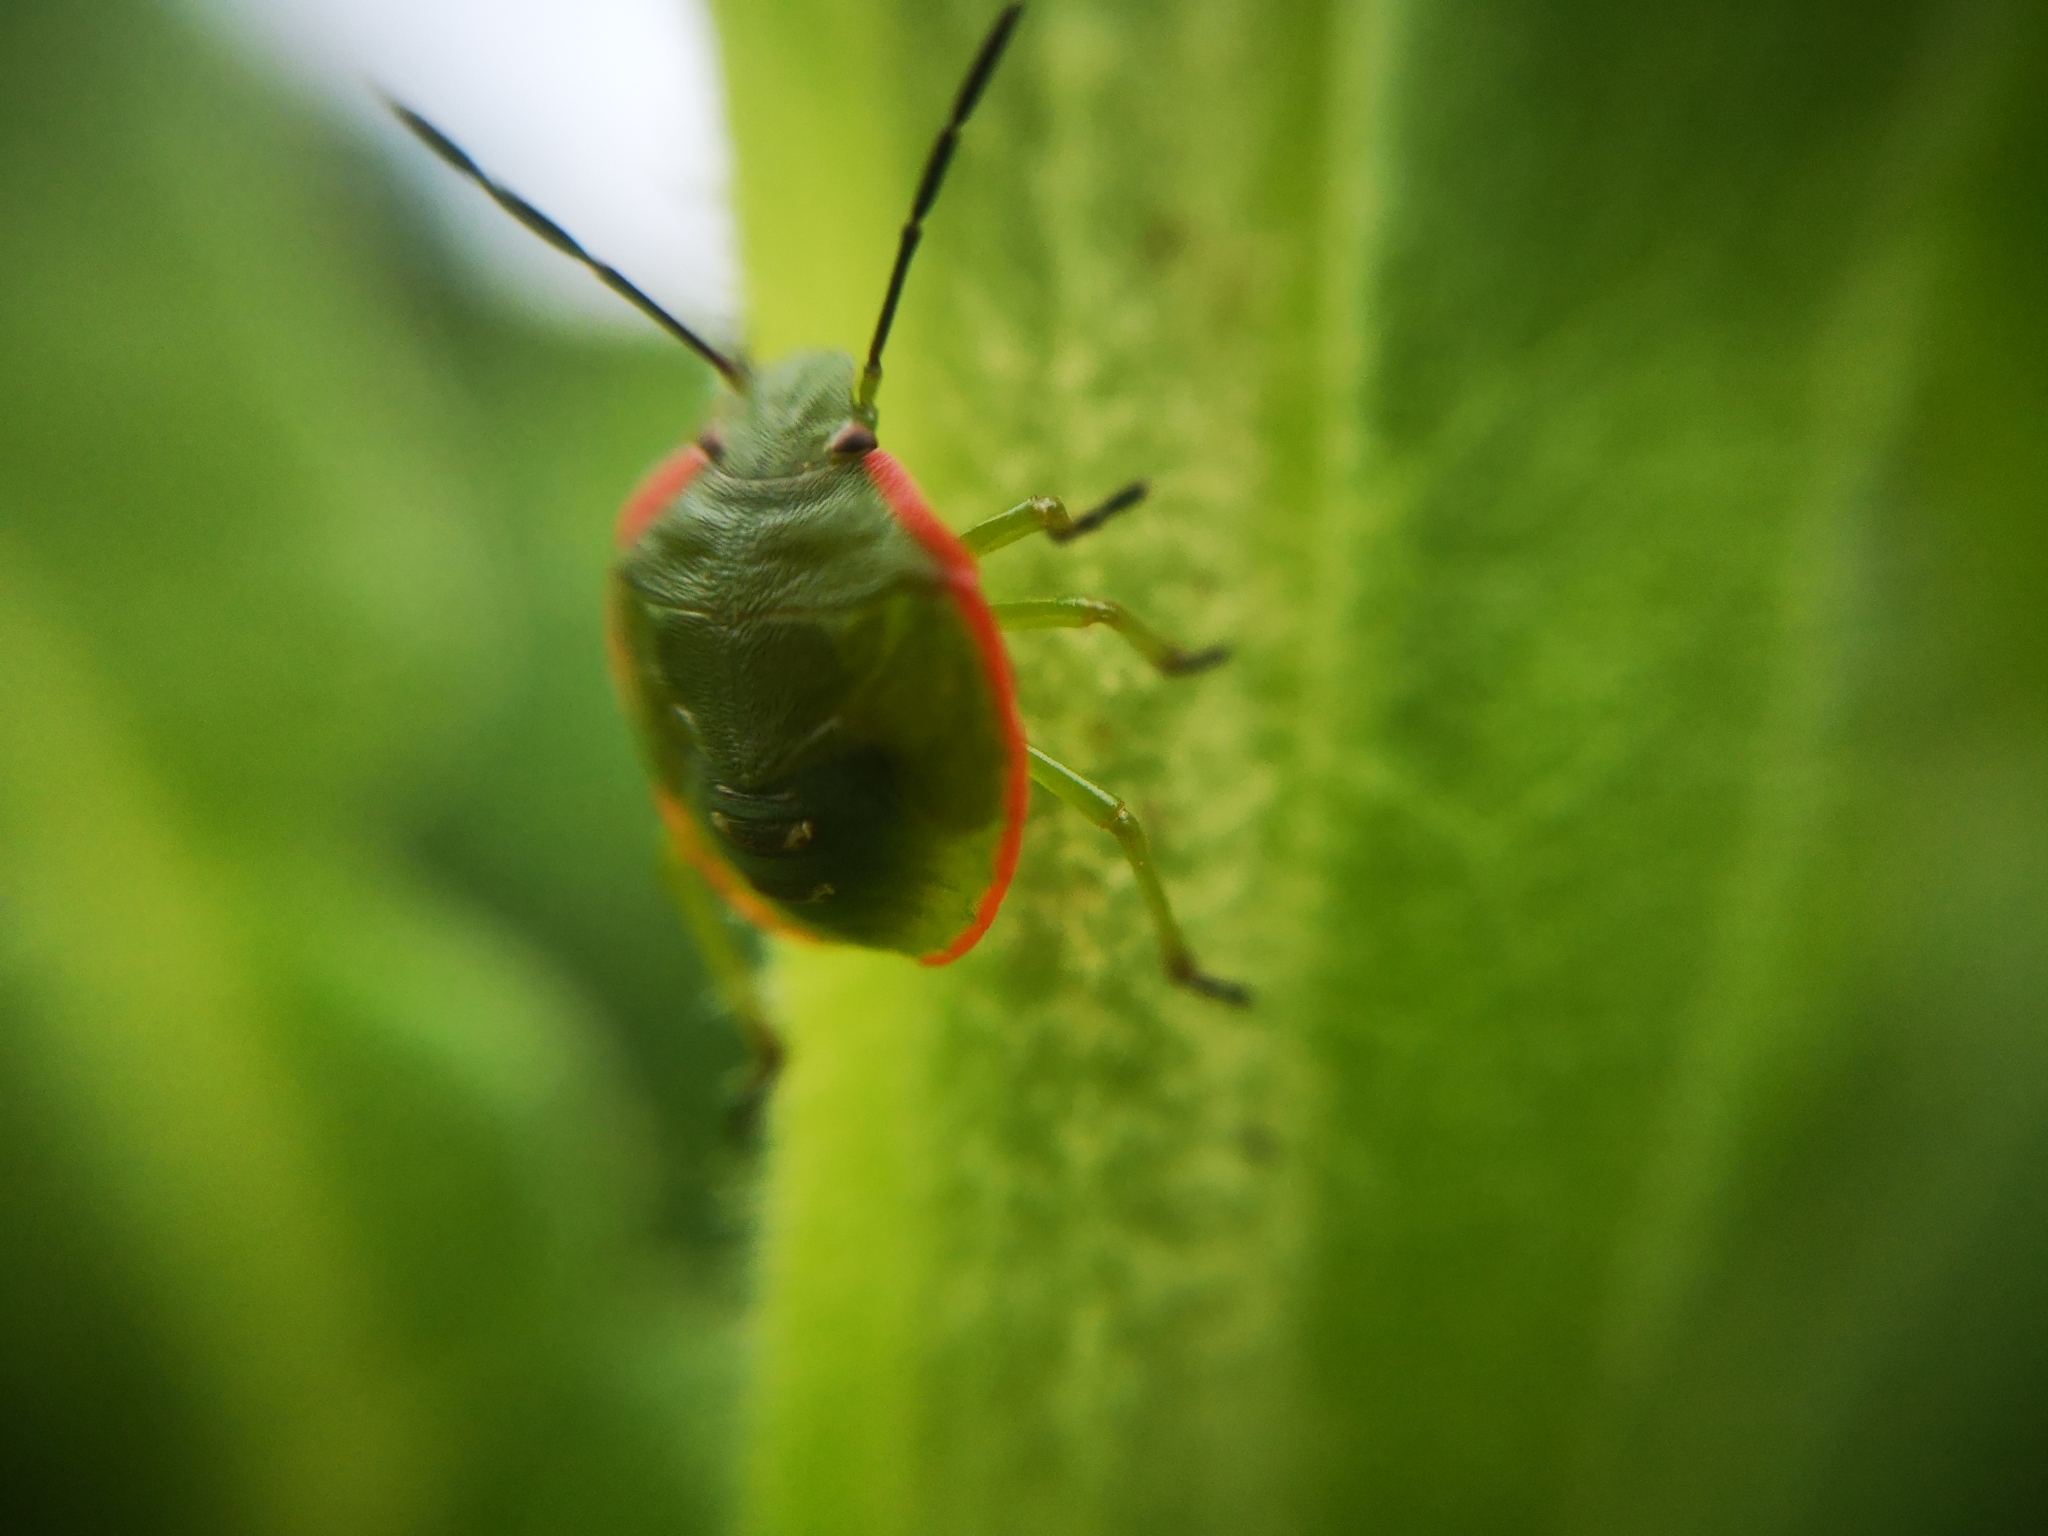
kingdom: Animalia
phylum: Arthropoda
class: Insecta
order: Hemiptera
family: Pentatomidae
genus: Chinavia
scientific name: Chinavia hilaris
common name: Green stink bug
